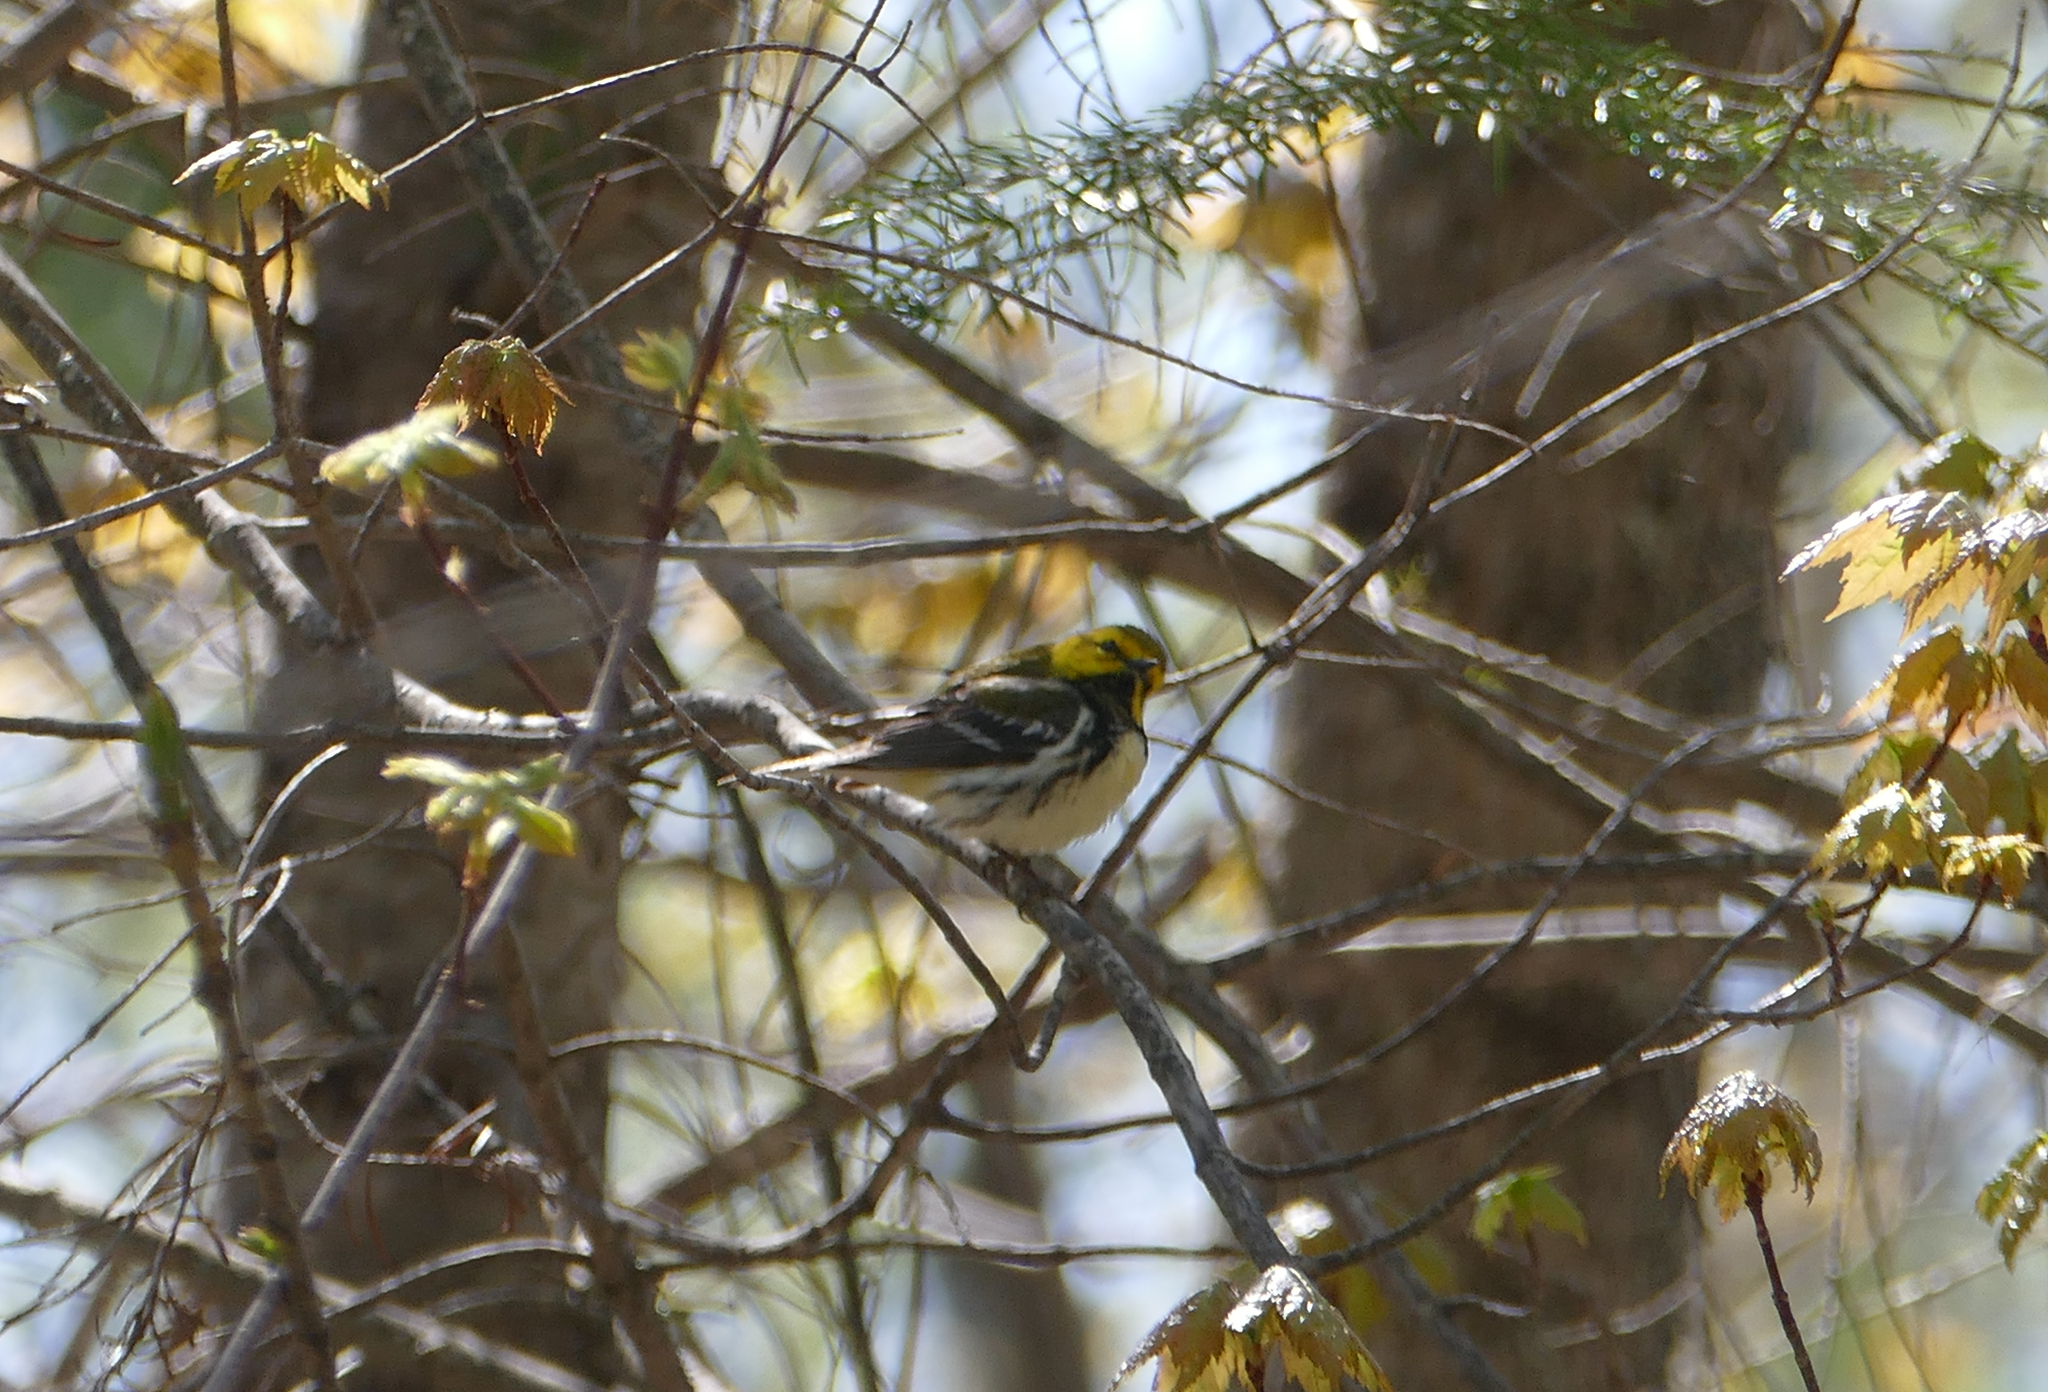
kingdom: Animalia
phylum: Chordata
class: Aves
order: Passeriformes
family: Parulidae
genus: Setophaga
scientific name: Setophaga virens
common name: Black-throated green warbler
